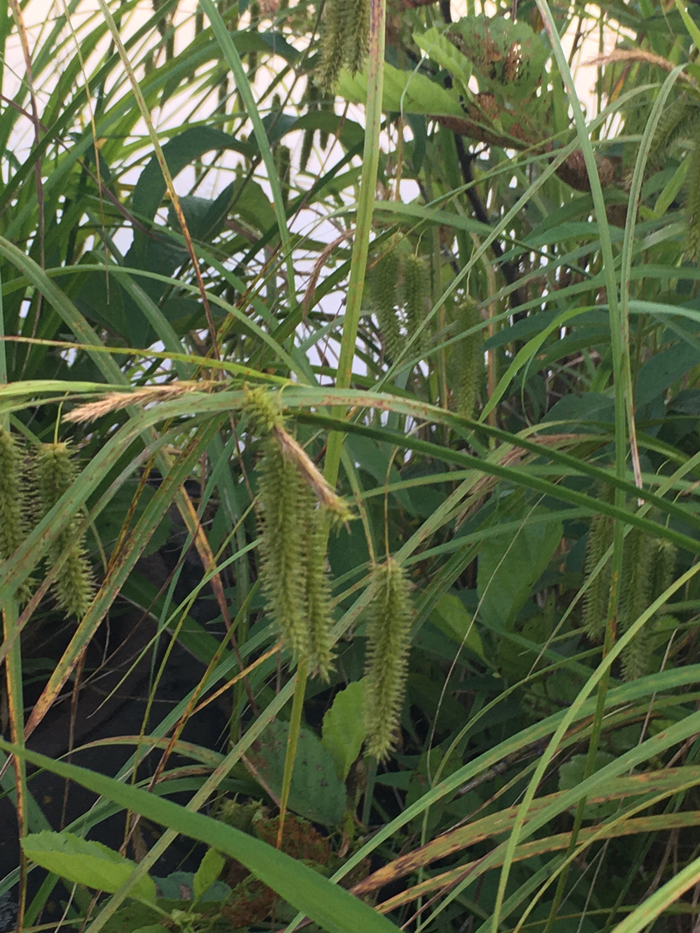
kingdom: Plantae
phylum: Tracheophyta
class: Liliopsida
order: Poales
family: Cyperaceae
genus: Carex
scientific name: Carex pseudocyperus
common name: Cyperus sedge
